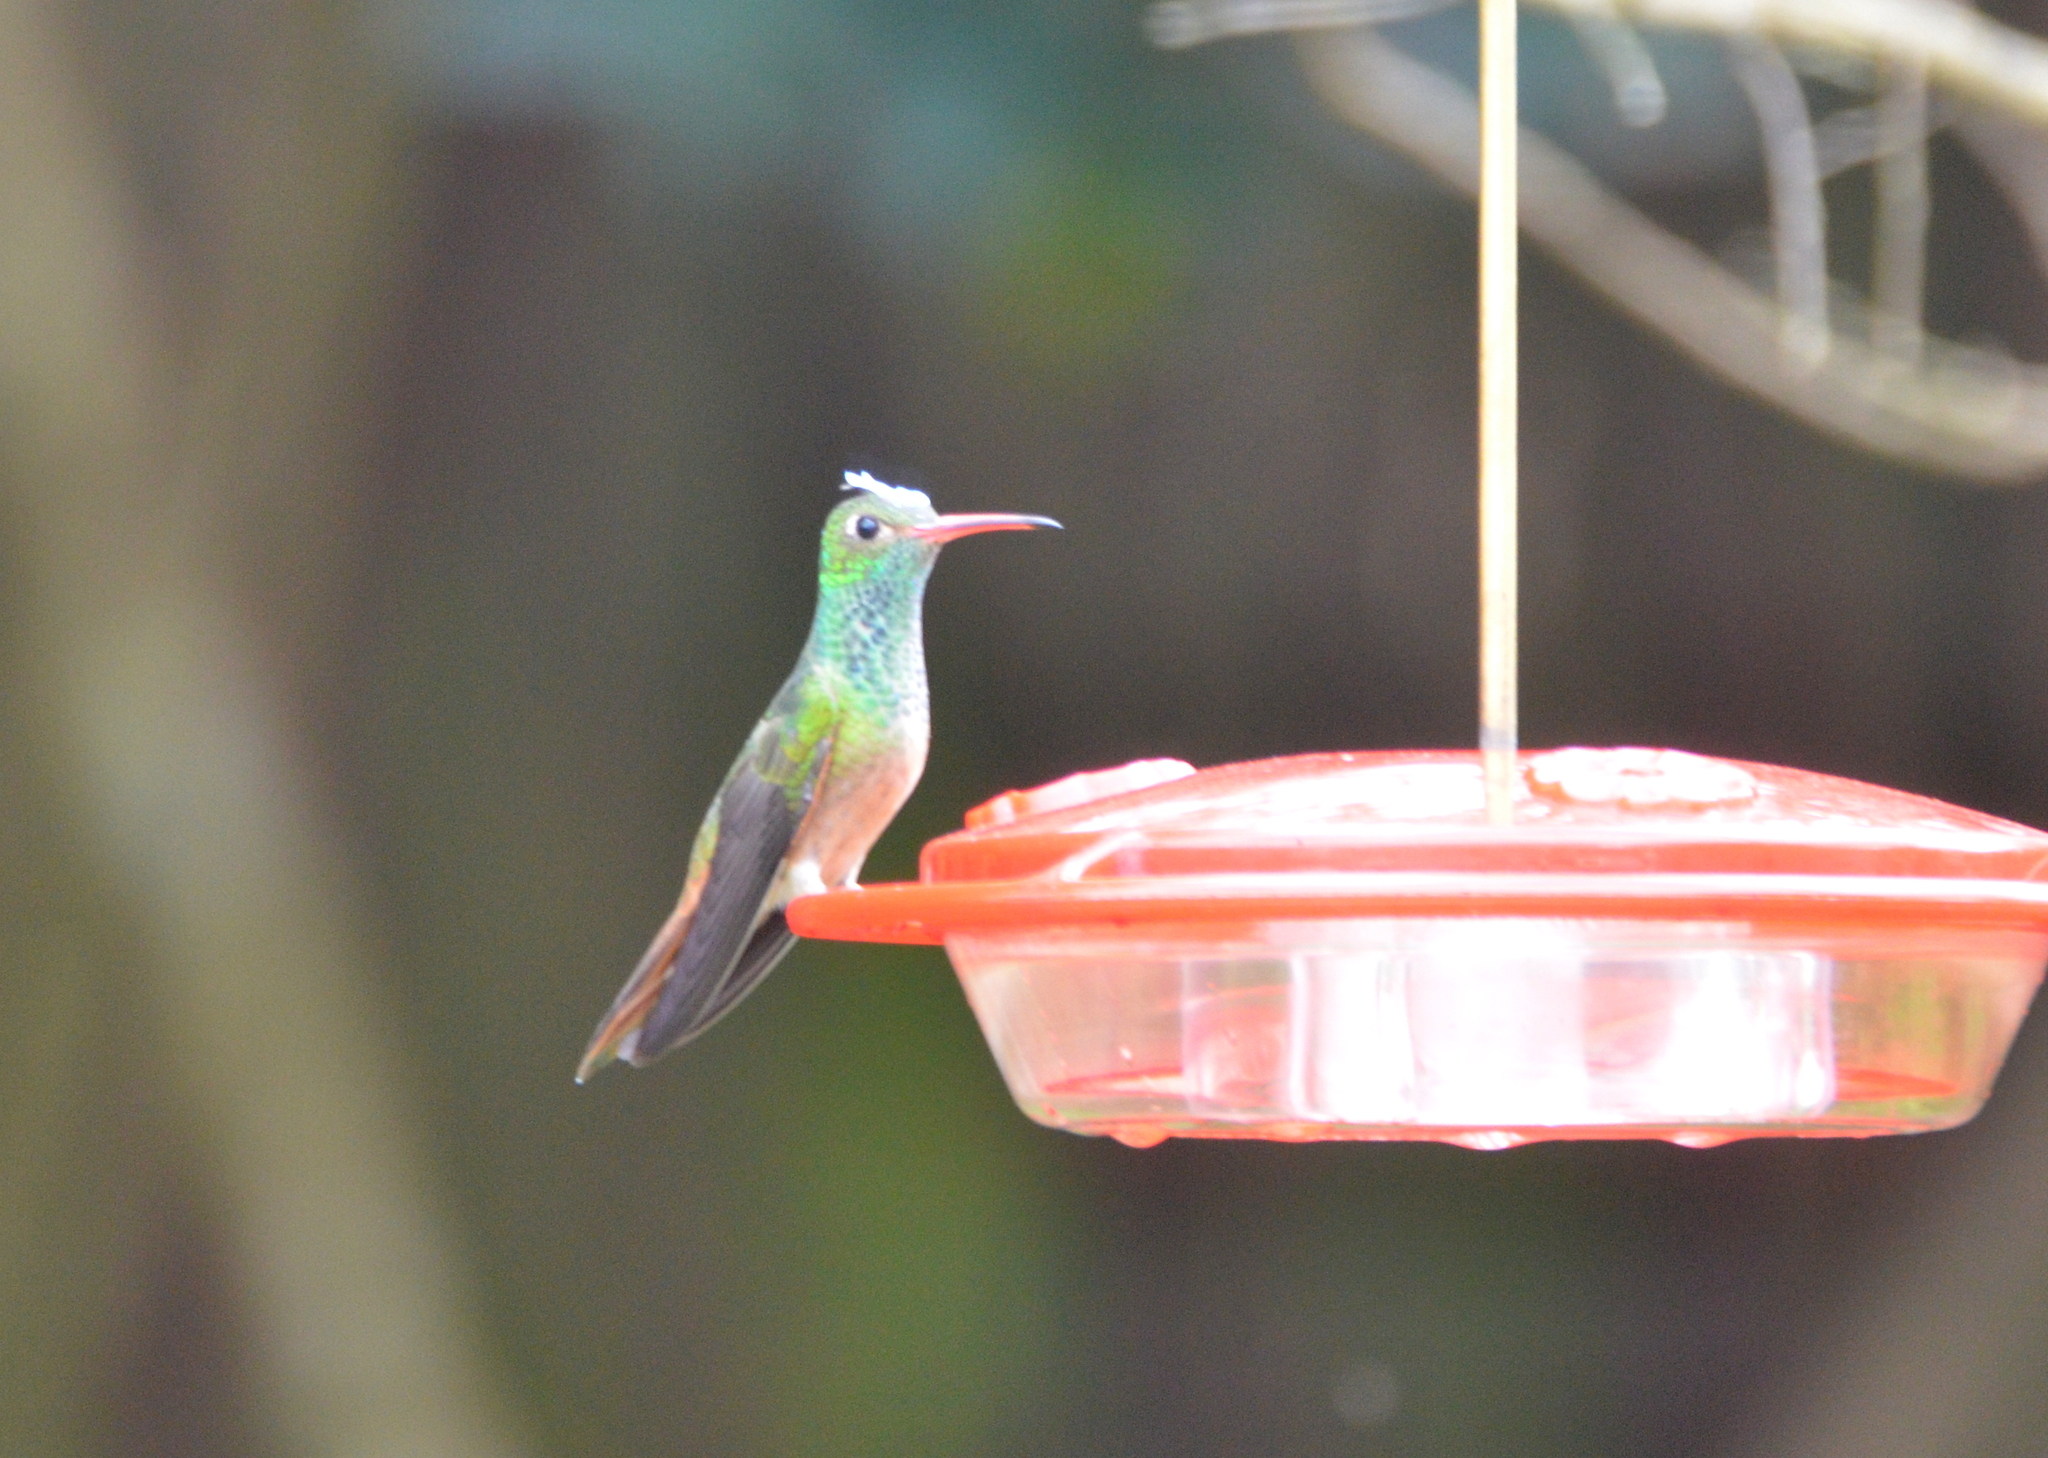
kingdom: Animalia
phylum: Chordata
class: Aves
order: Apodiformes
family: Trochilidae
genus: Amazilia
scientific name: Amazilia yucatanensis
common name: Buff-bellied hummingbird
